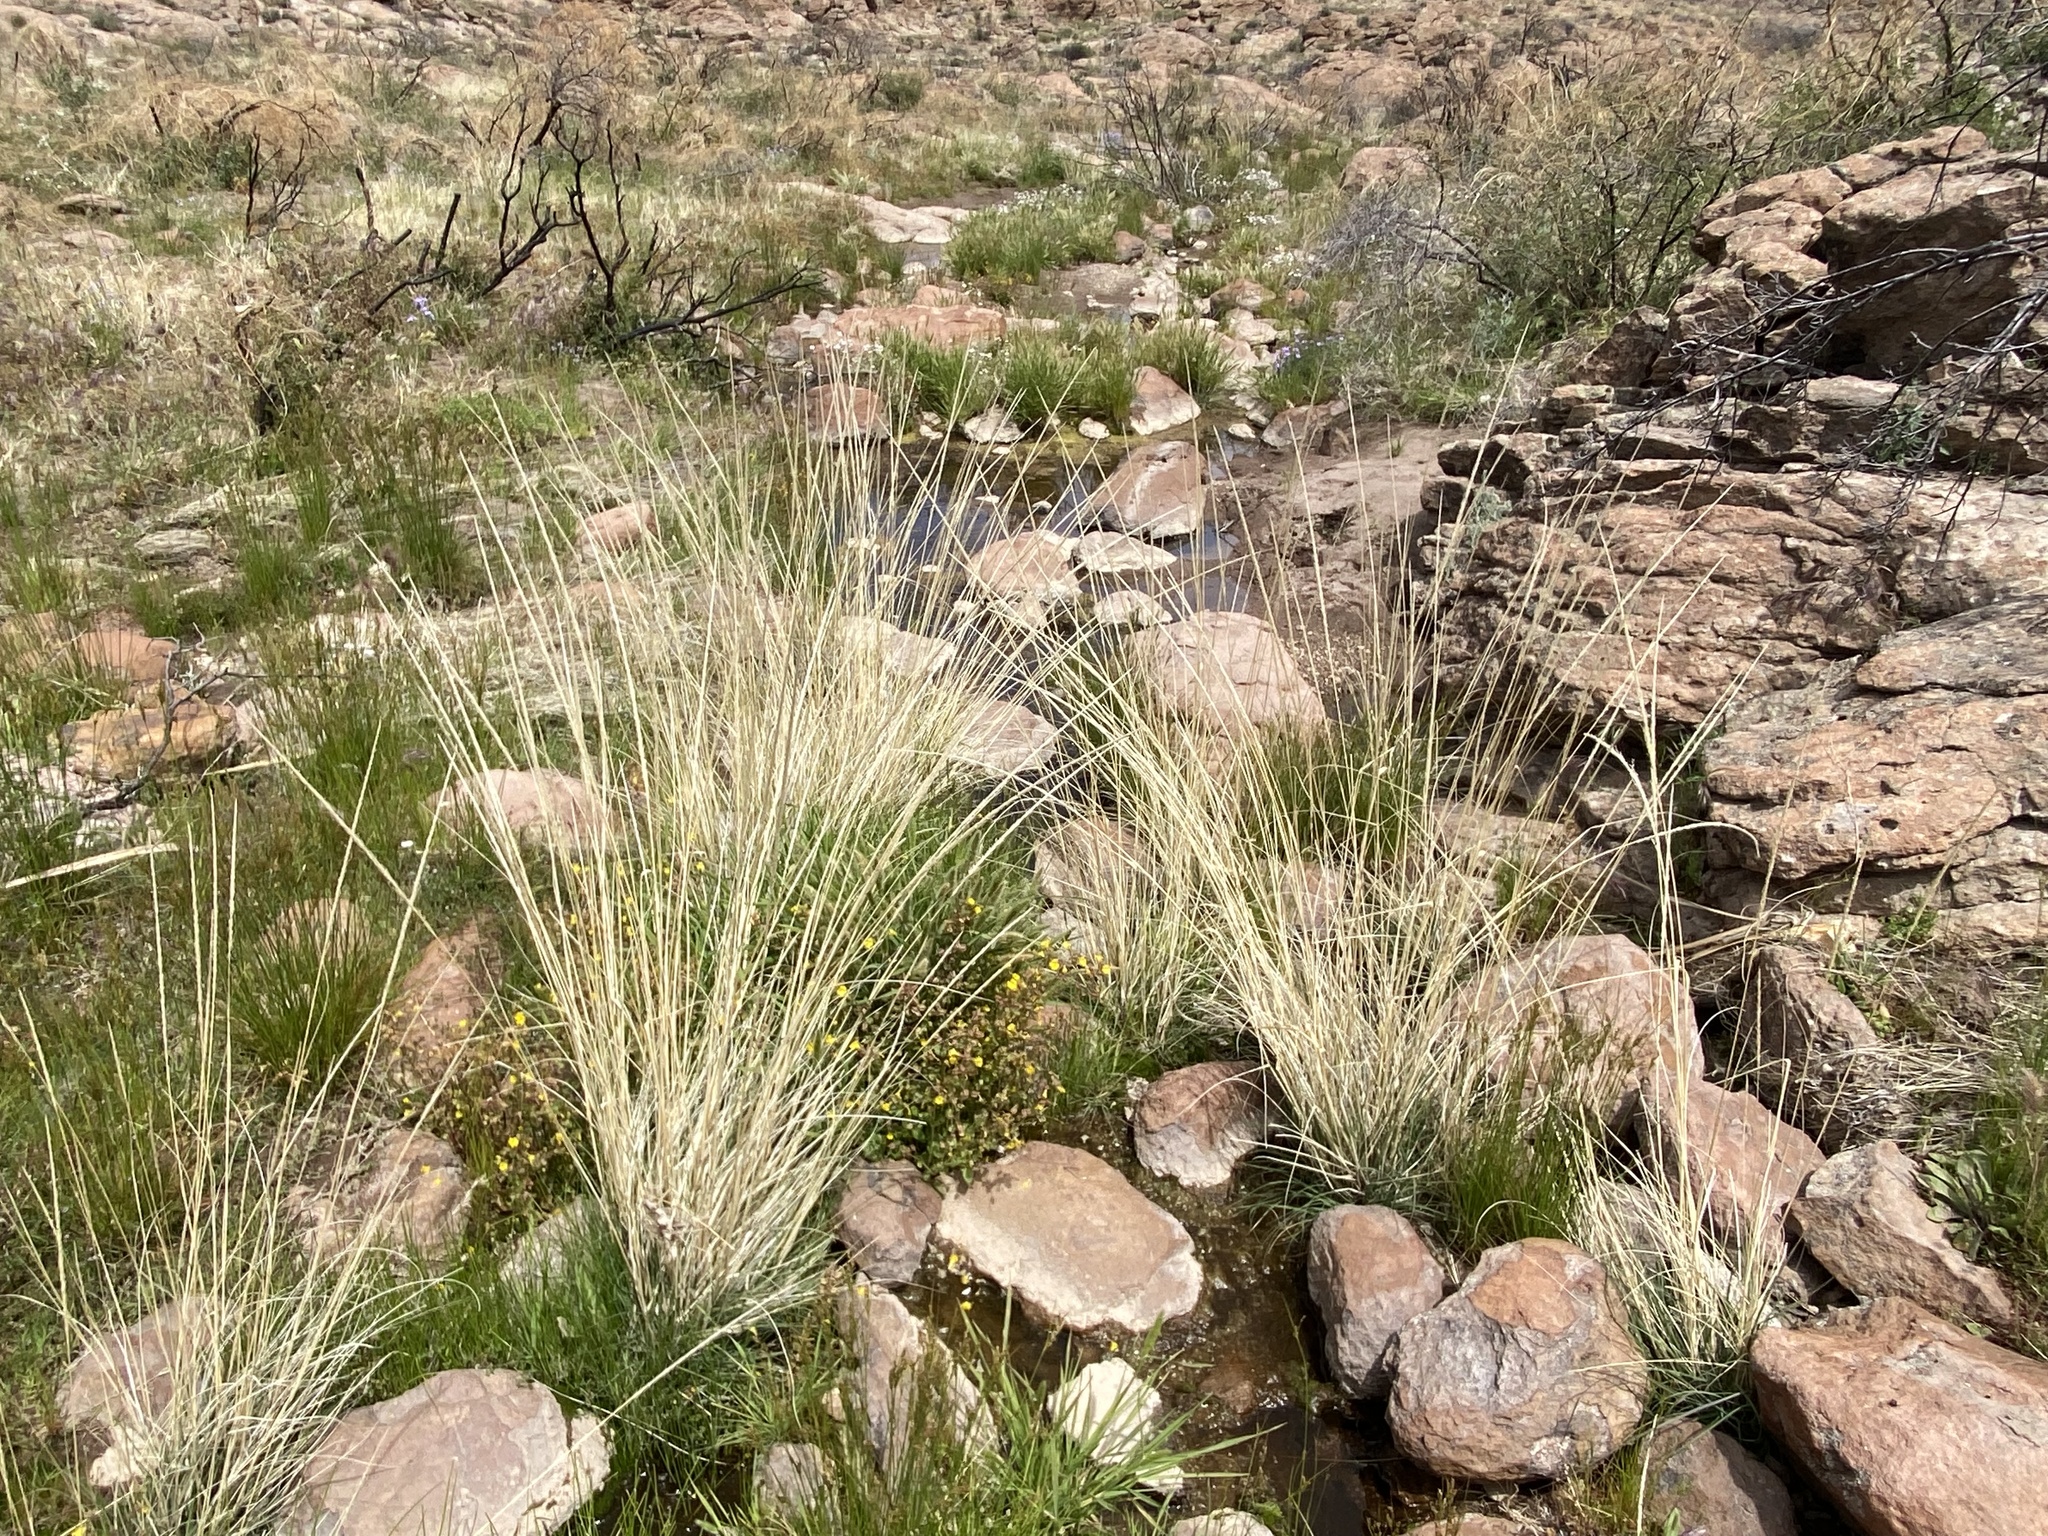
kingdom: Plantae
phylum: Tracheophyta
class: Liliopsida
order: Poales
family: Poaceae
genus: Muhlenbergia
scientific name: Muhlenbergia rigens
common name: Deer grass
